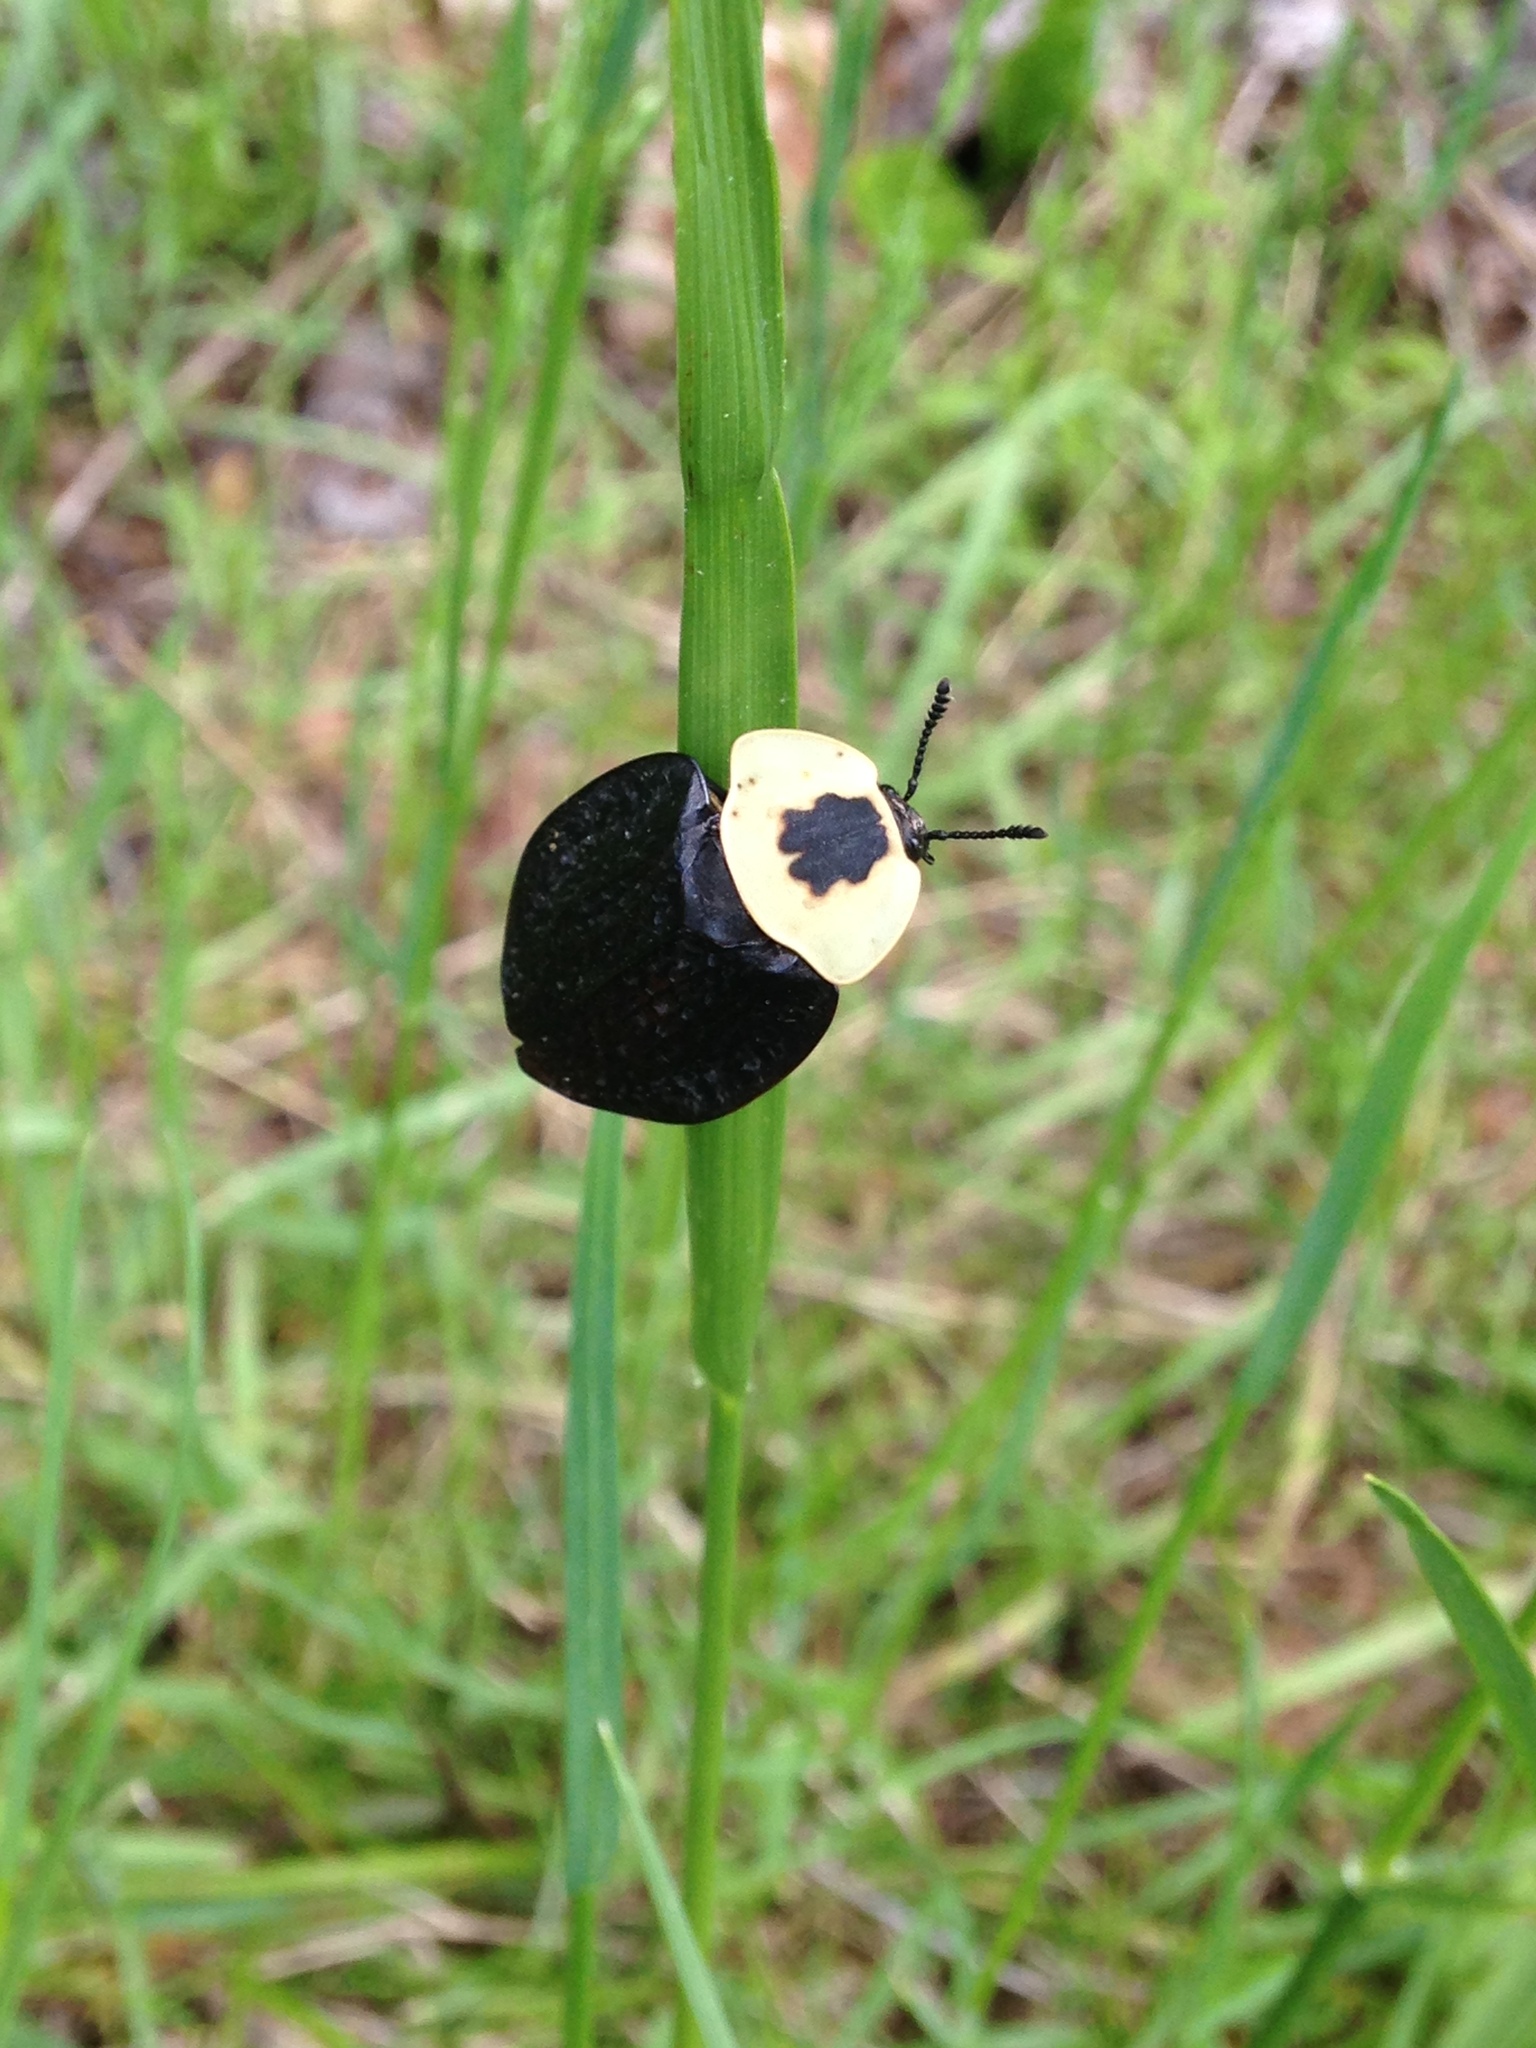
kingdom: Animalia
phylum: Arthropoda
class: Insecta
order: Coleoptera
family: Staphylinidae
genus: Necrophila
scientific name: Necrophila americana
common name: American carrion beetle
